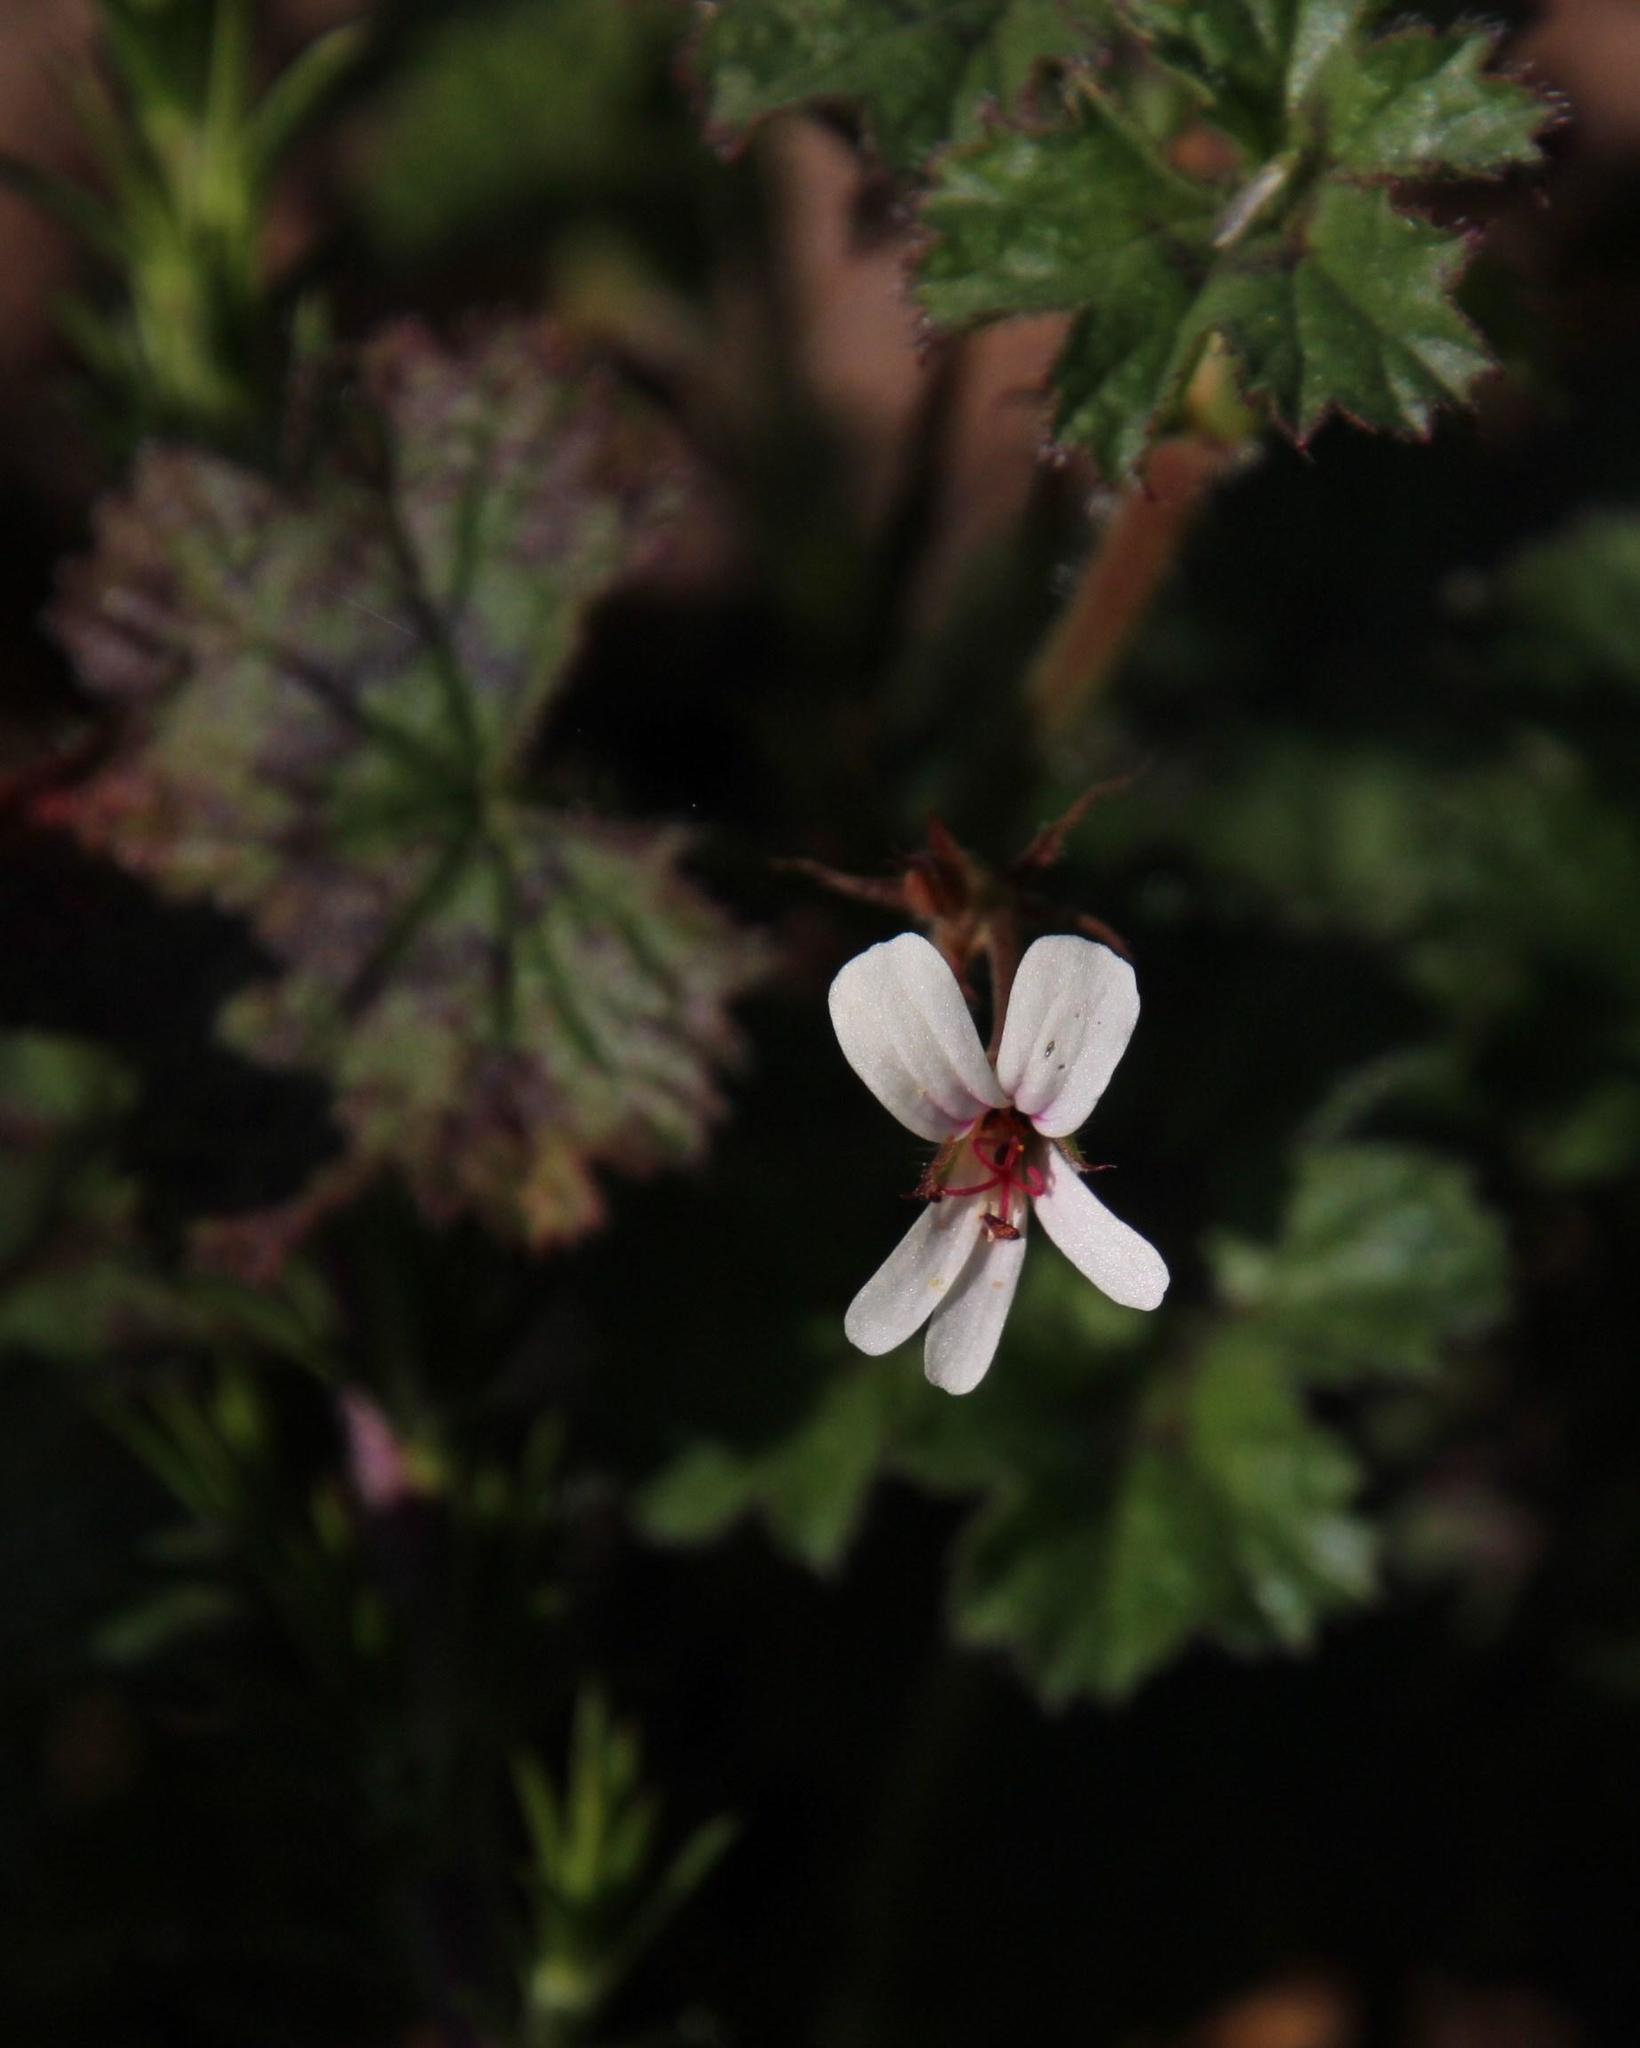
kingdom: Plantae
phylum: Tracheophyta
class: Magnoliopsida
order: Geraniales
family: Geraniaceae
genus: Pelargonium
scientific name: Pelargonium elongatum
